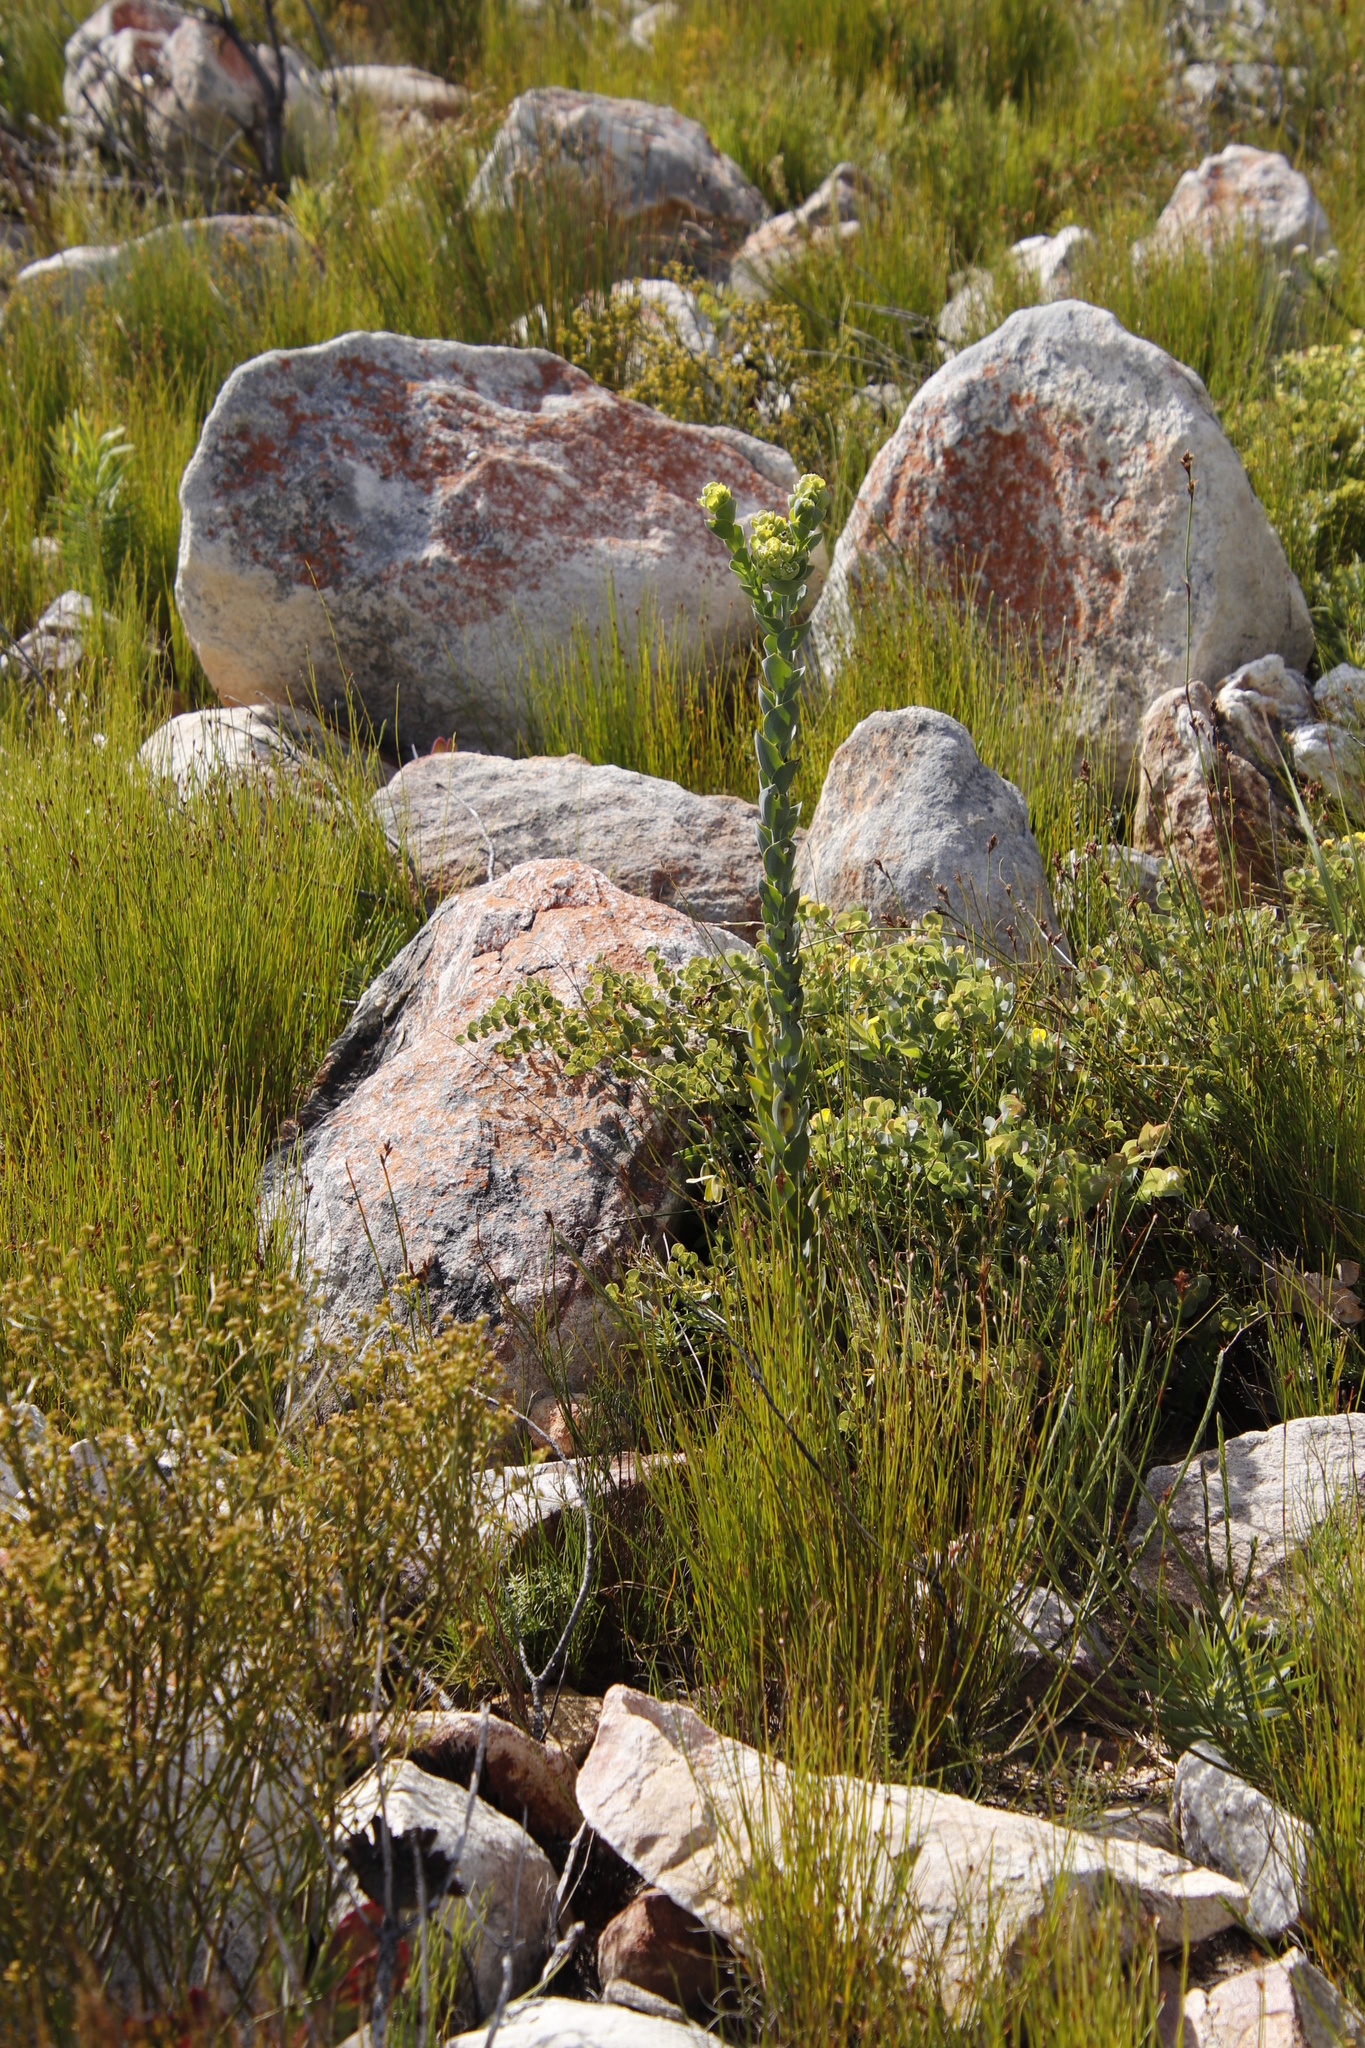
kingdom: Plantae
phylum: Tracheophyta
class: Magnoliopsida
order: Santalales
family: Thesiaceae
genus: Thesium
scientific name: Thesium euphorbioides
